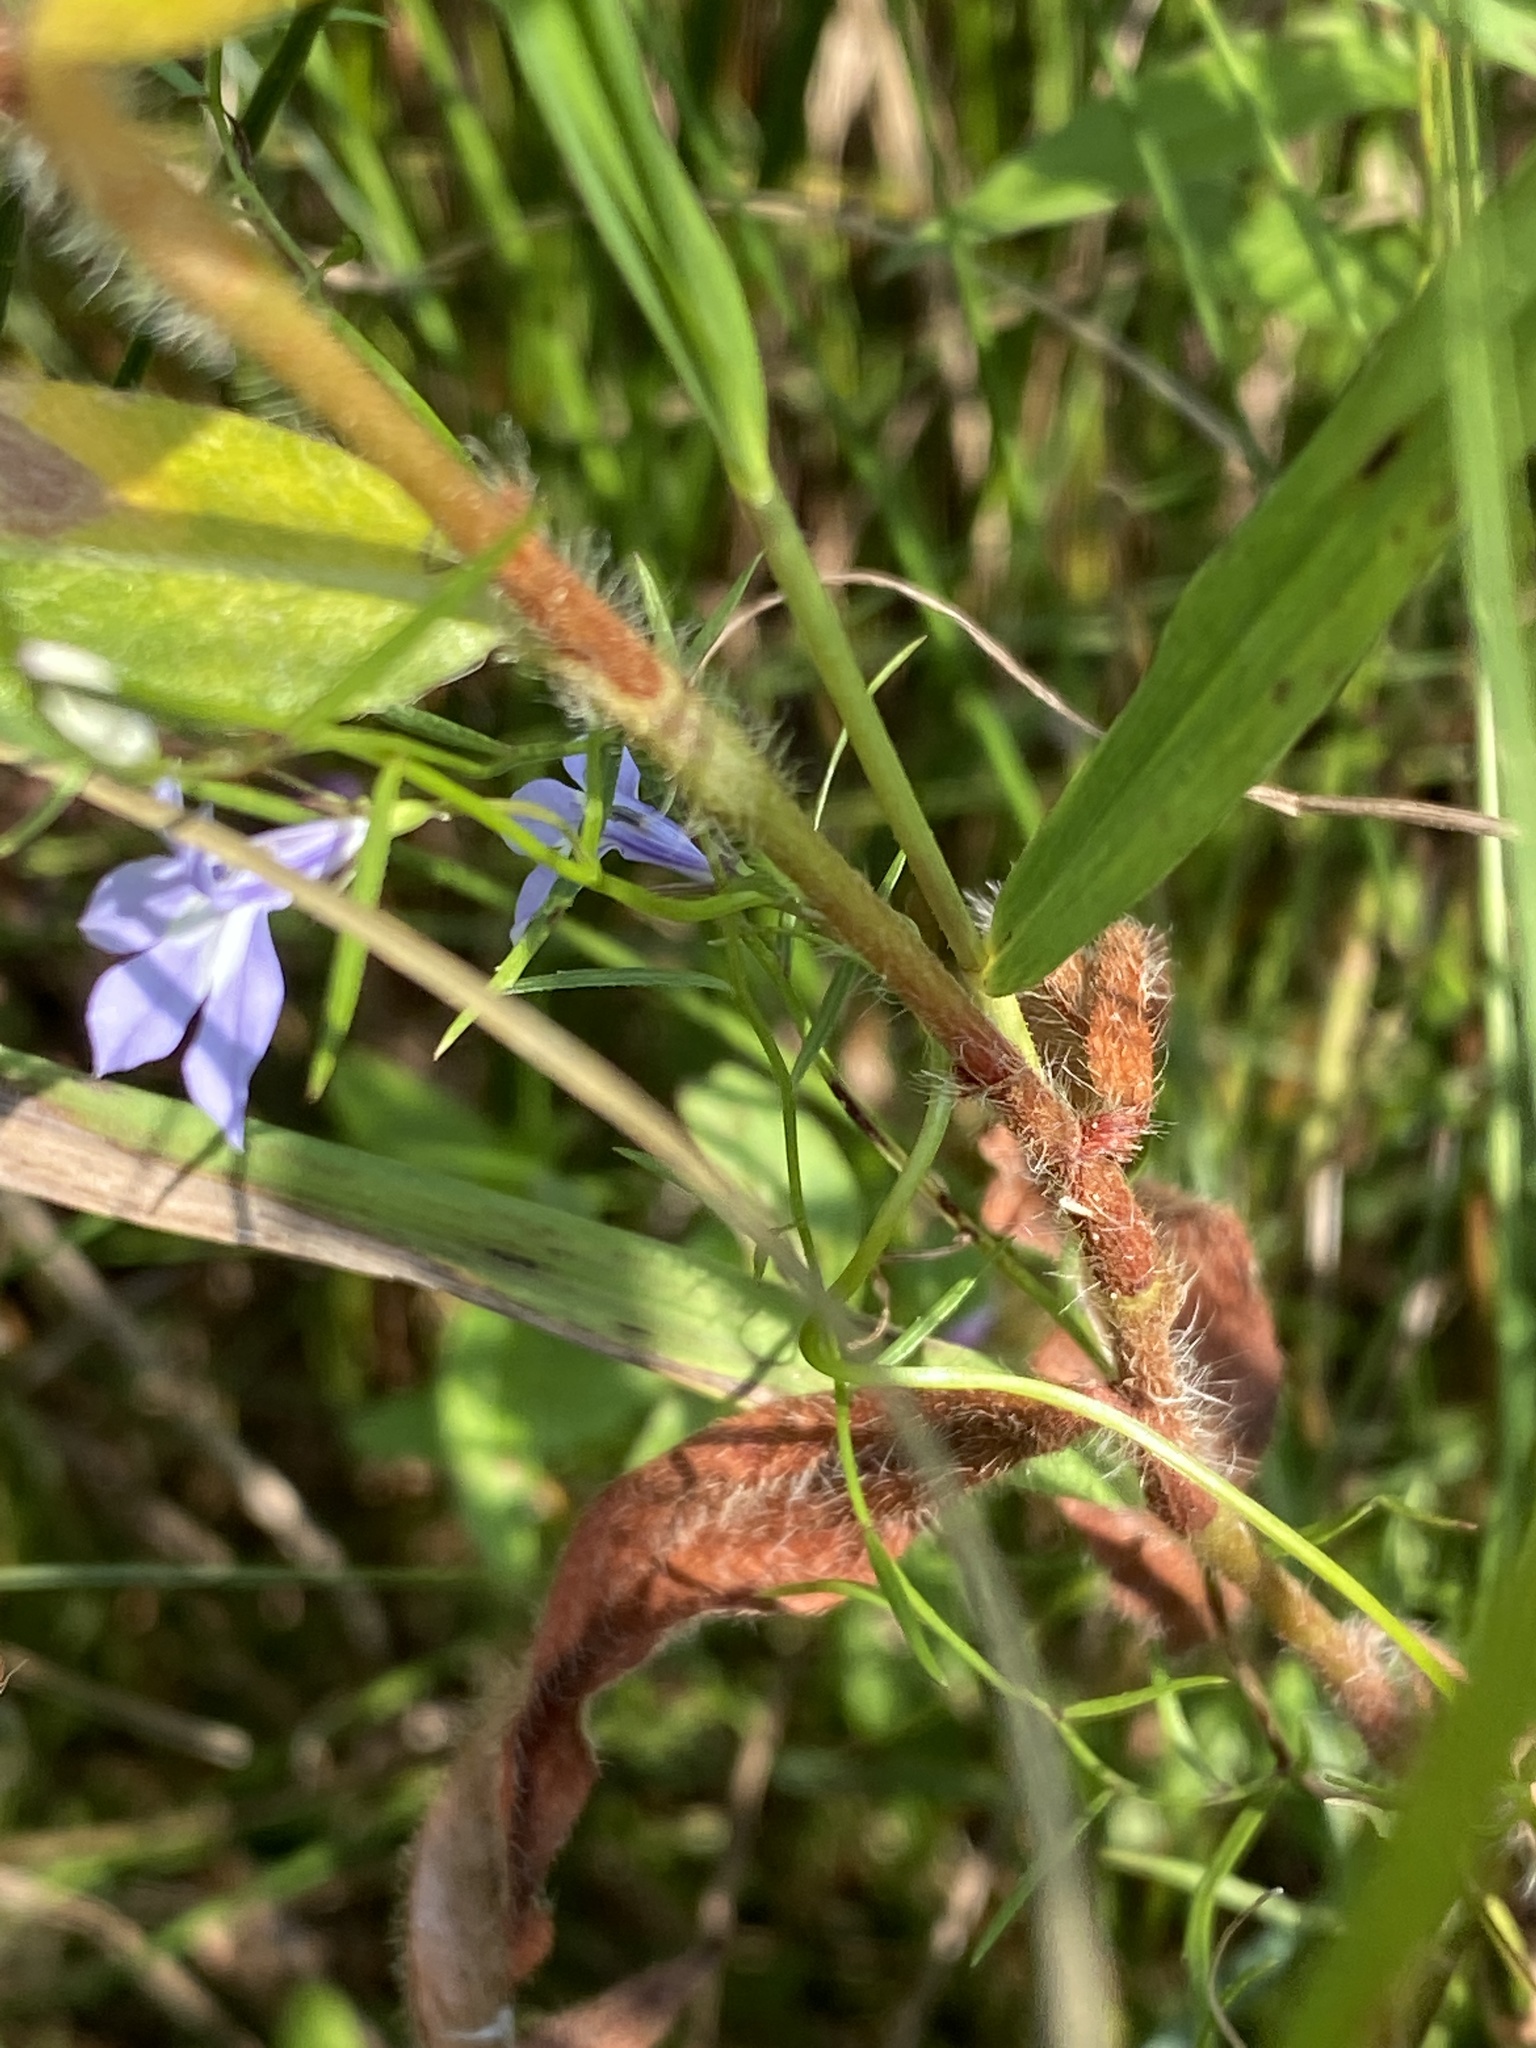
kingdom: Plantae
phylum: Tracheophyta
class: Magnoliopsida
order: Asterales
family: Campanulaceae
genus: Lobelia
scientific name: Lobelia kalmii
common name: Kalm's lobelia
